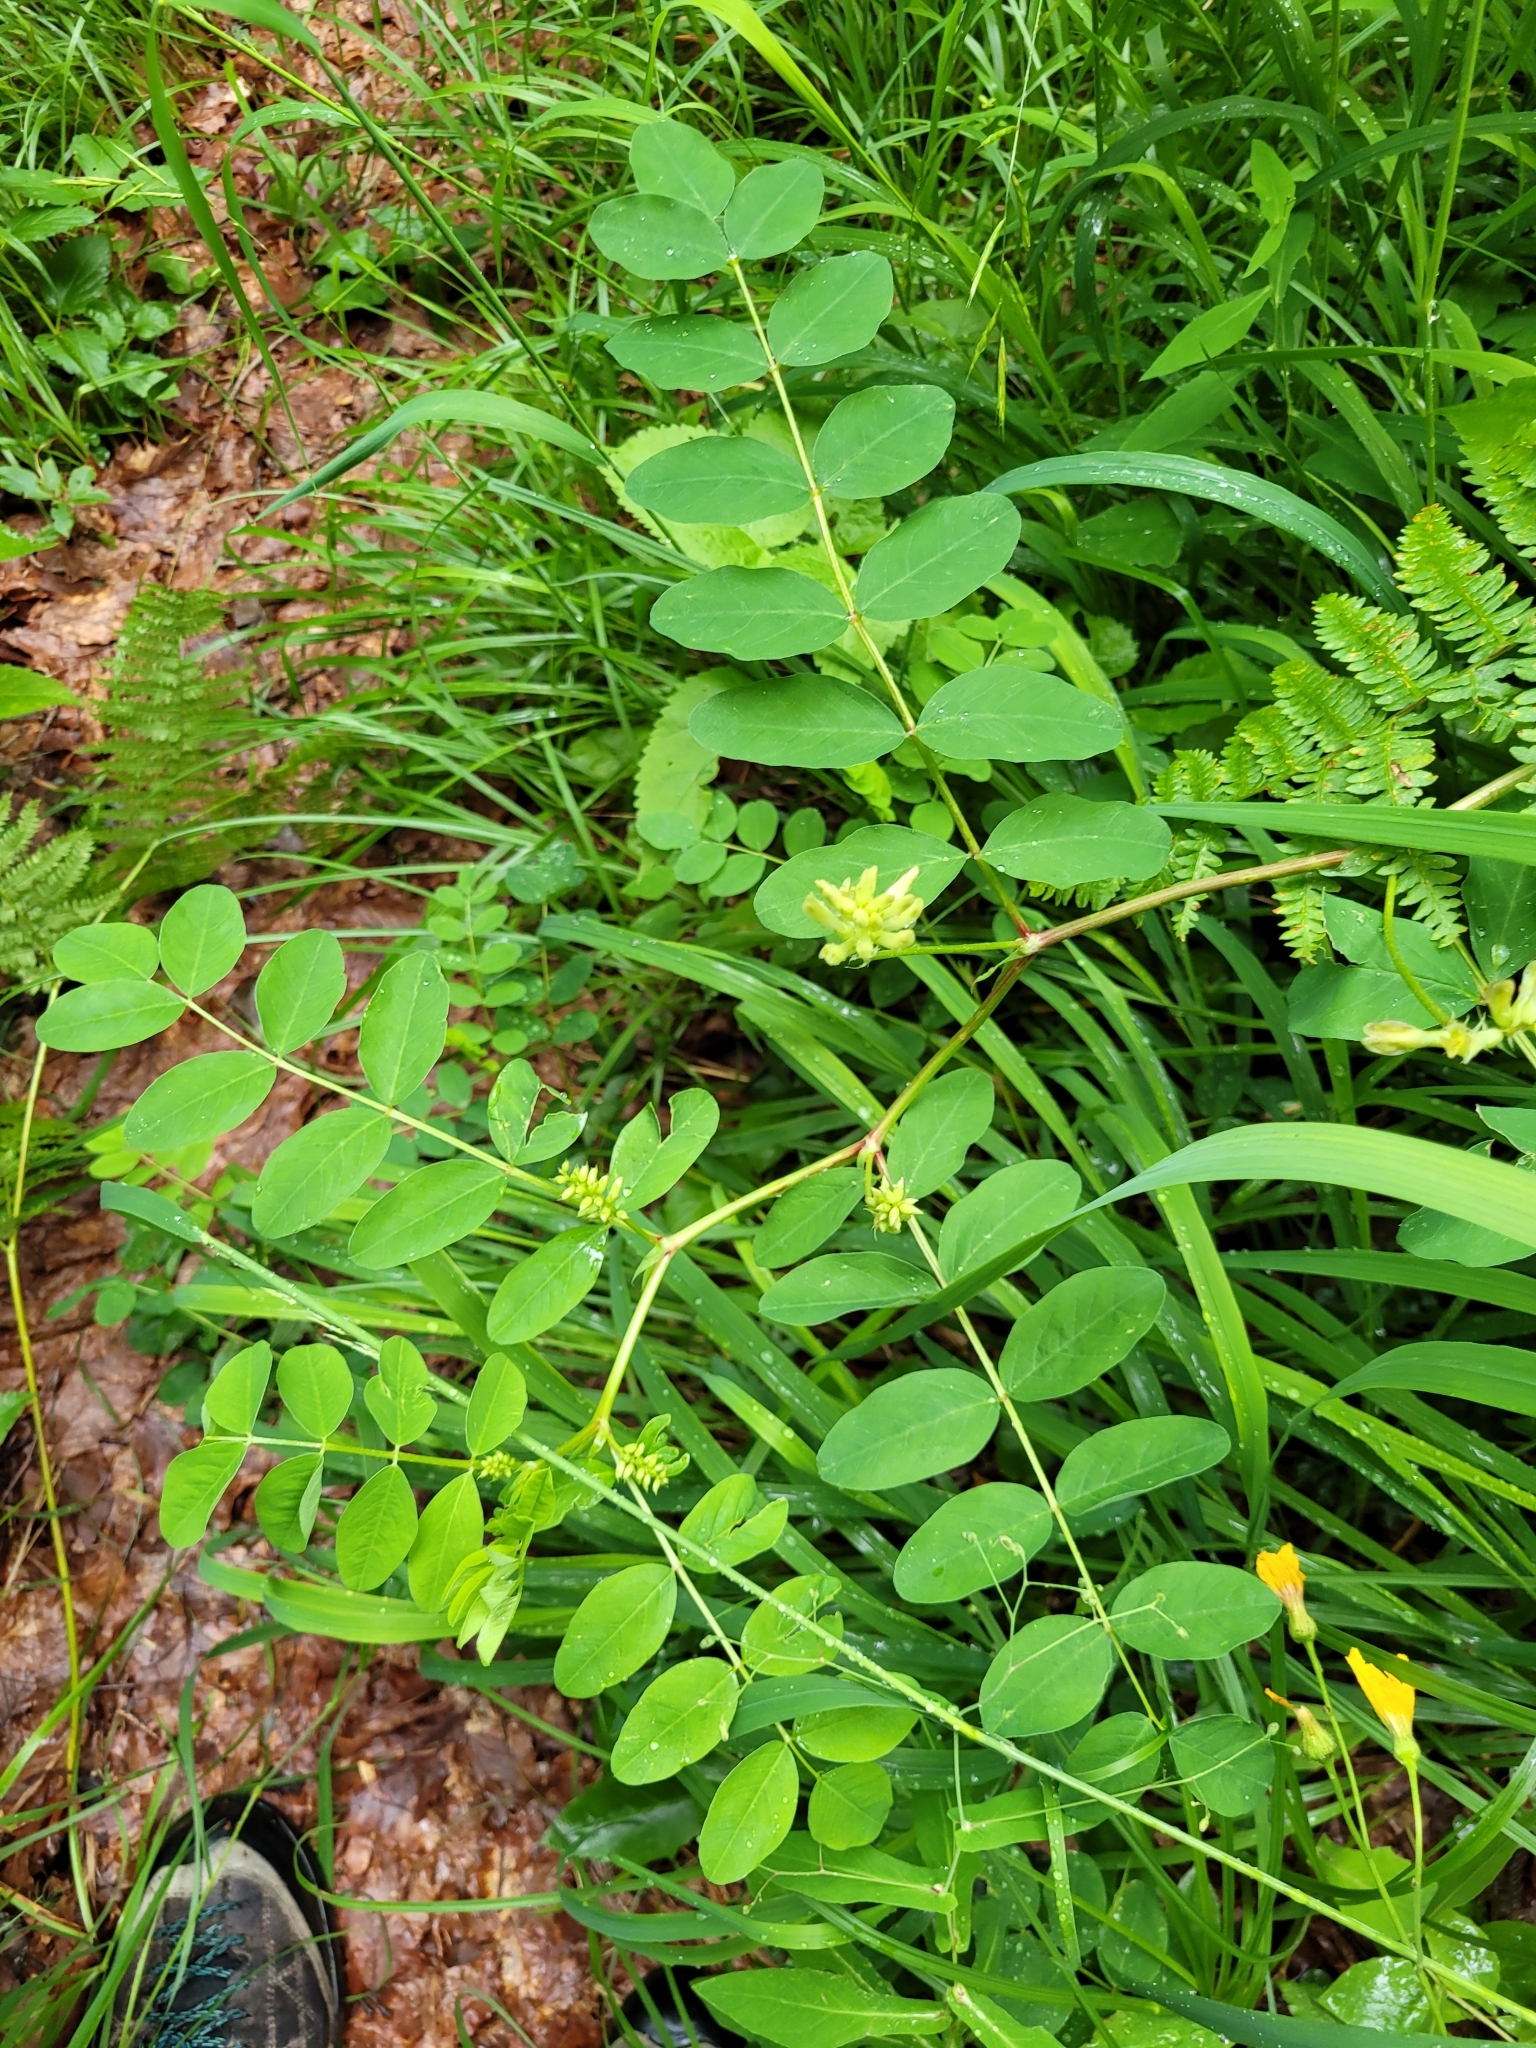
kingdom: Plantae
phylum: Tracheophyta
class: Magnoliopsida
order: Fabales
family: Fabaceae
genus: Astragalus
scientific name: Astragalus glycyphyllos
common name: Wild liquorice
